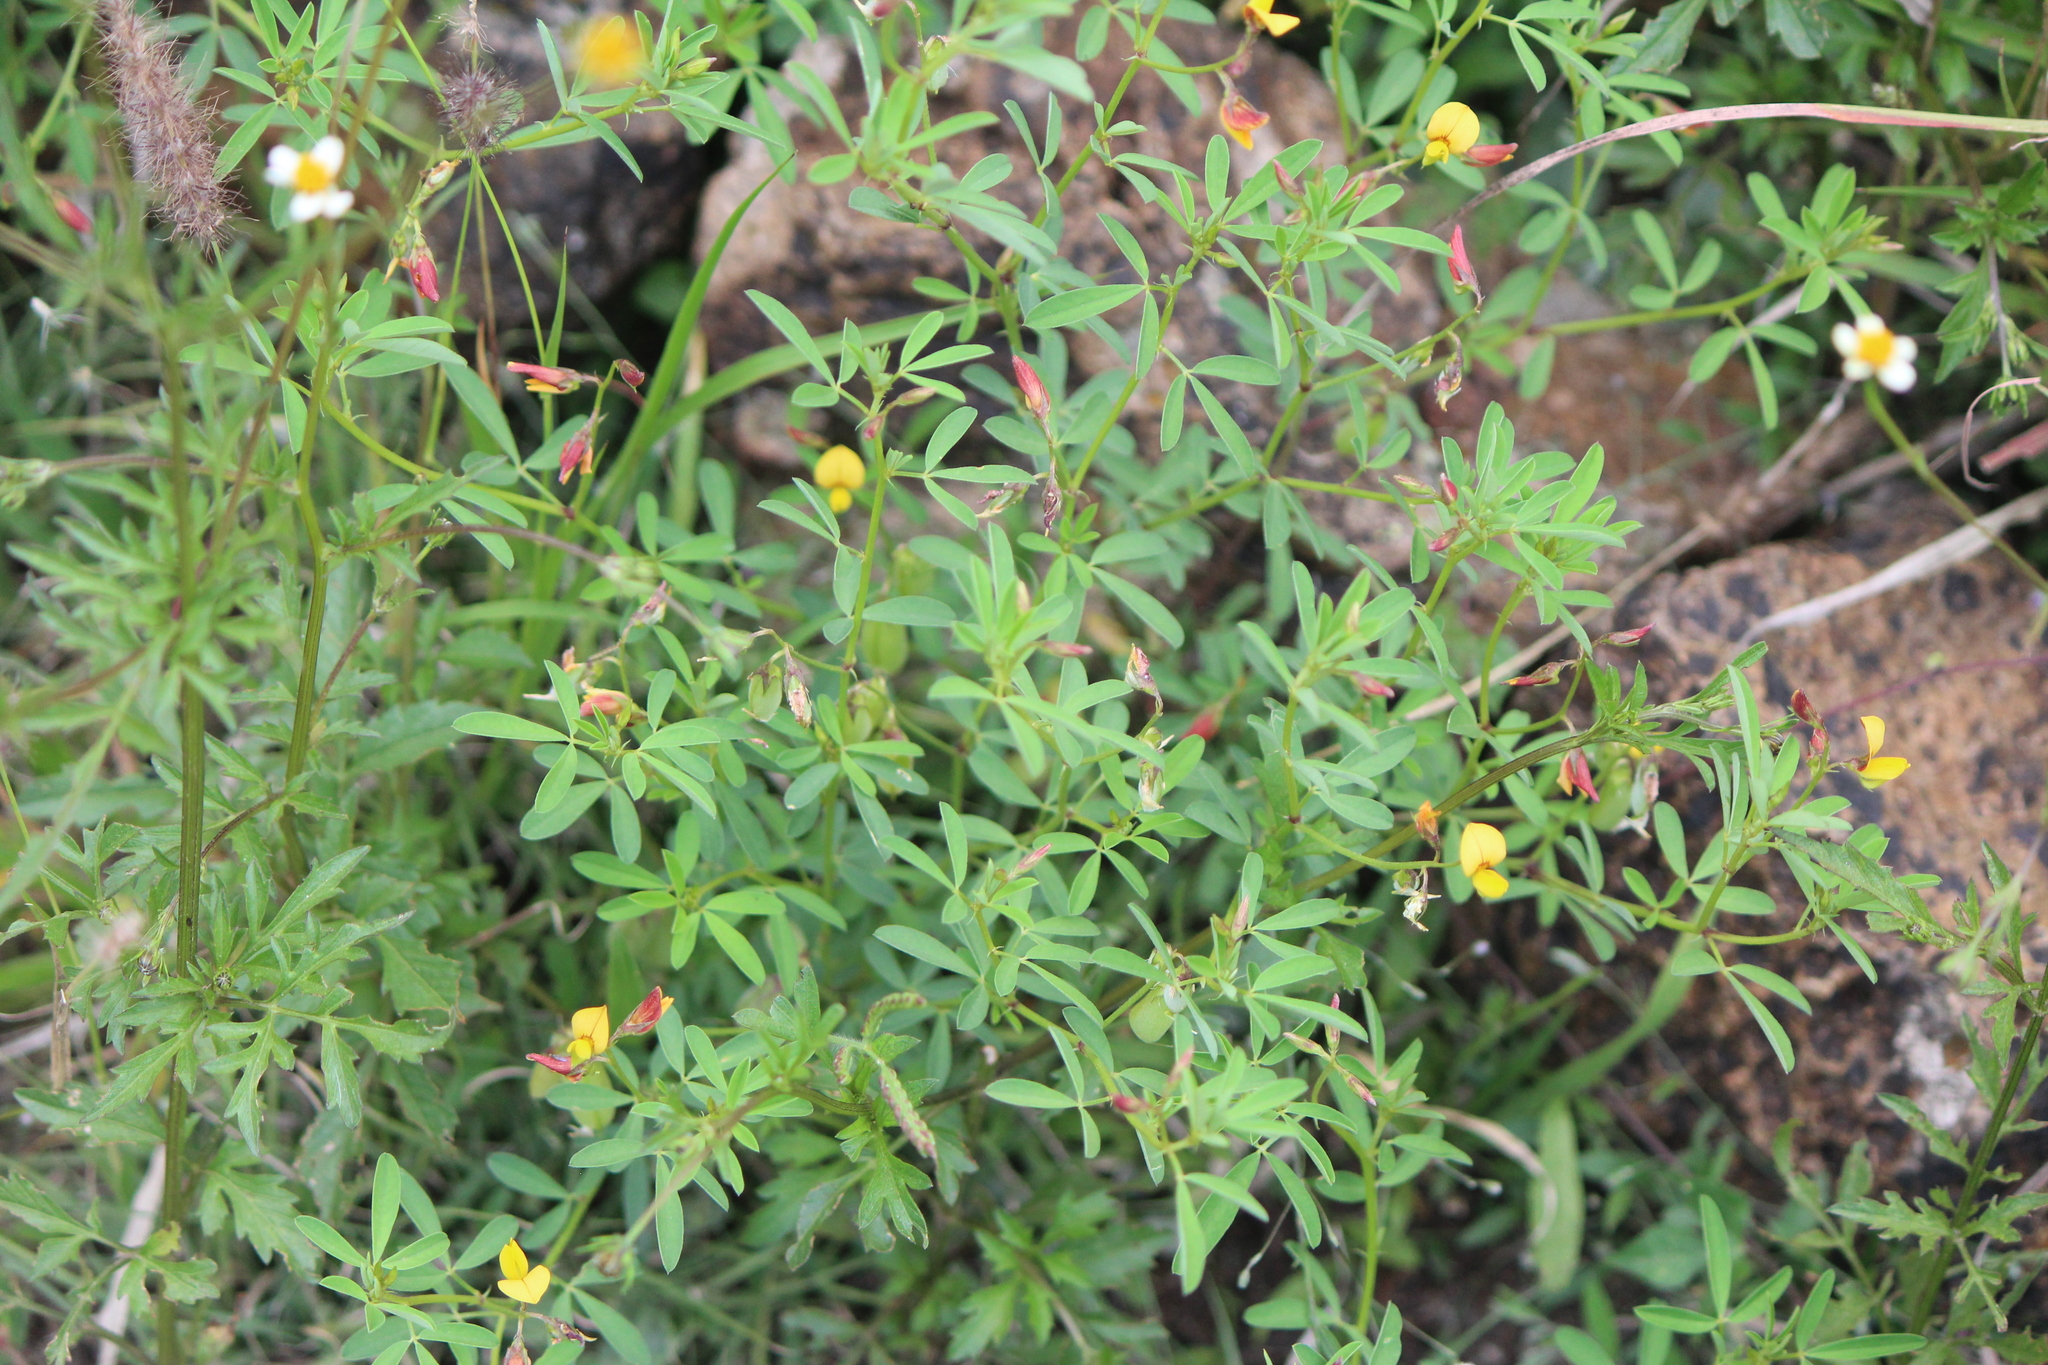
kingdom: Plantae
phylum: Tracheophyta
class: Magnoliopsida
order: Fabales
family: Fabaceae
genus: Crotalaria
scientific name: Crotalaria pumila
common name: Low rattlebox
